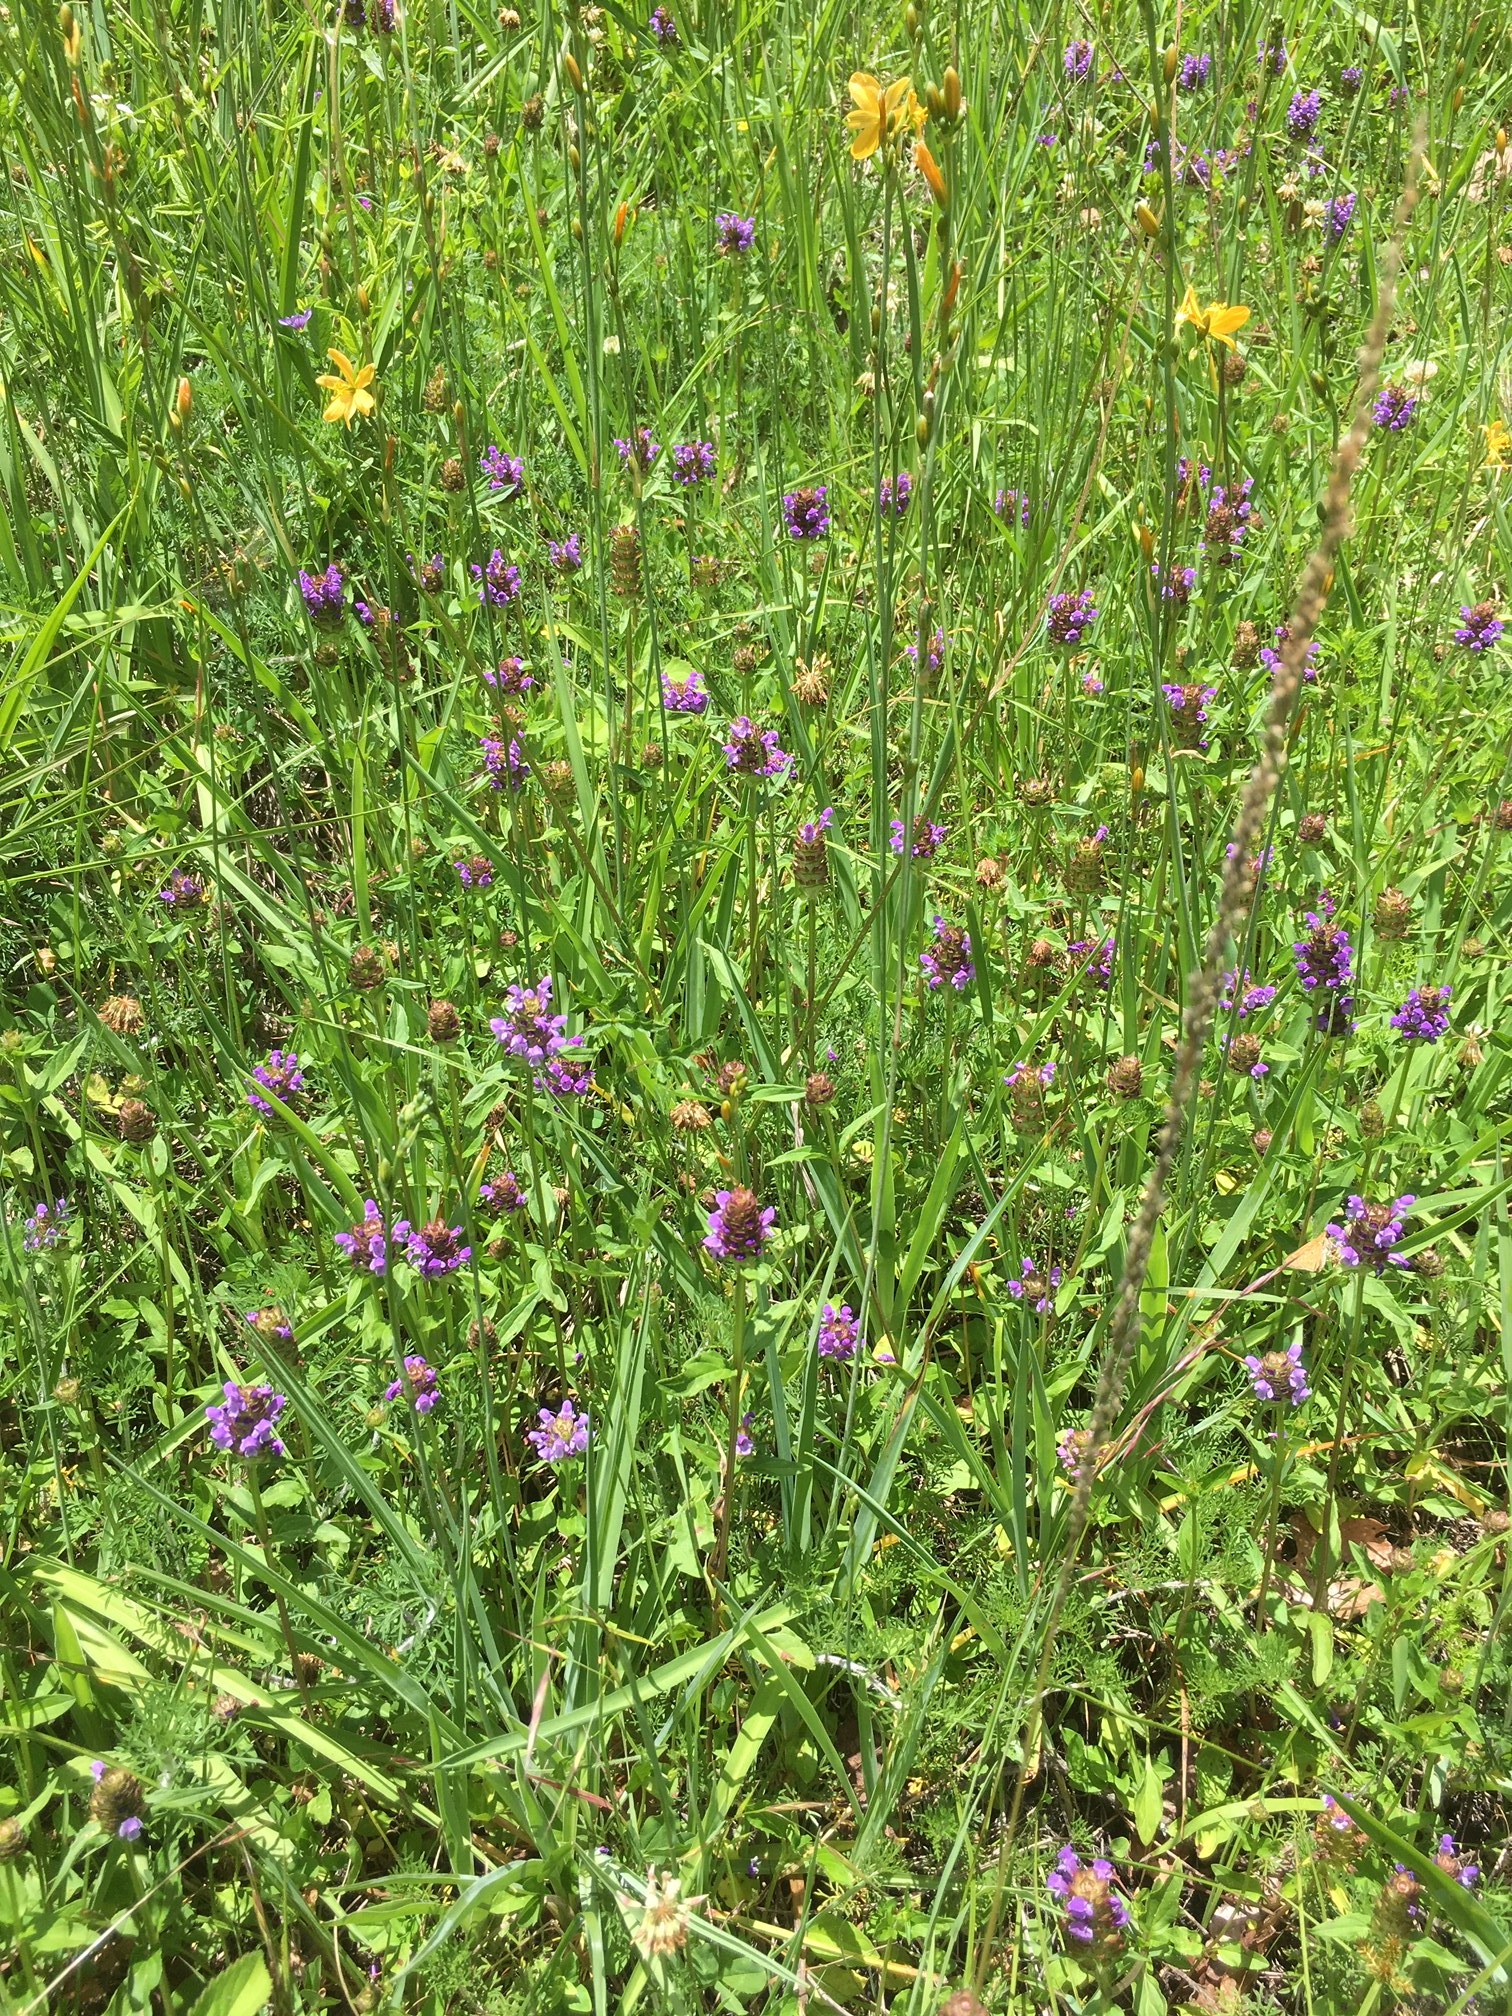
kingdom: Plantae
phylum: Tracheophyta
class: Magnoliopsida
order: Lamiales
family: Lamiaceae
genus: Prunella
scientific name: Prunella vulgaris
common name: Heal-all
